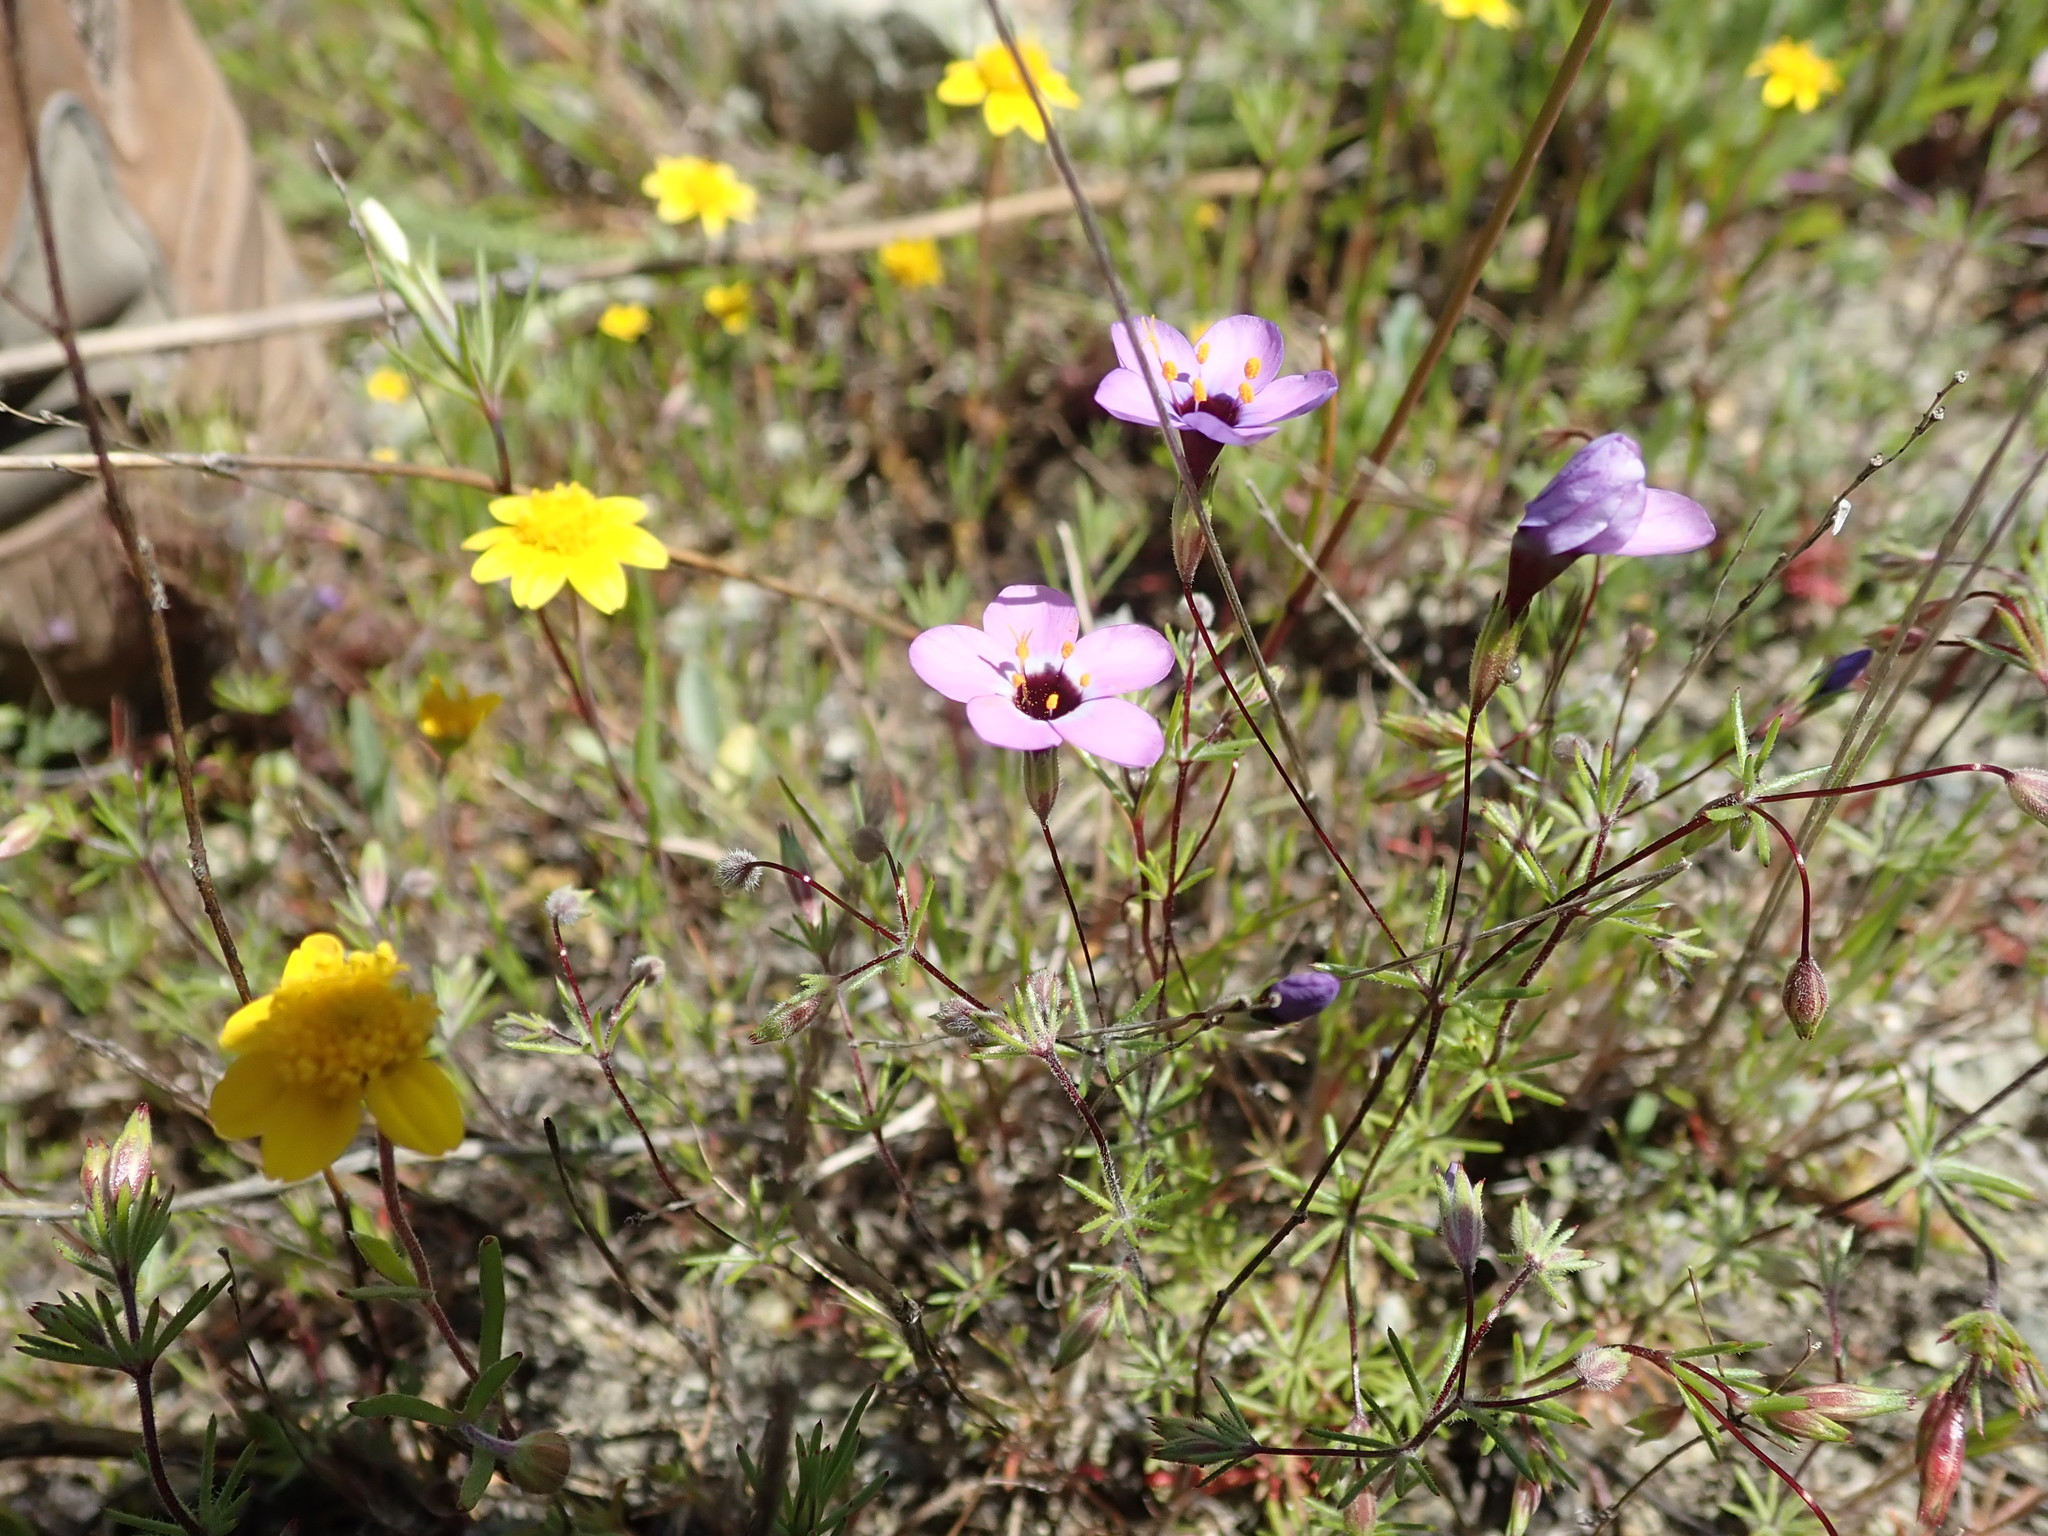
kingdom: Plantae
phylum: Tracheophyta
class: Magnoliopsida
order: Ericales
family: Polemoniaceae
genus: Leptosiphon
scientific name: Leptosiphon ambiguus
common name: Serpentine linanthus
